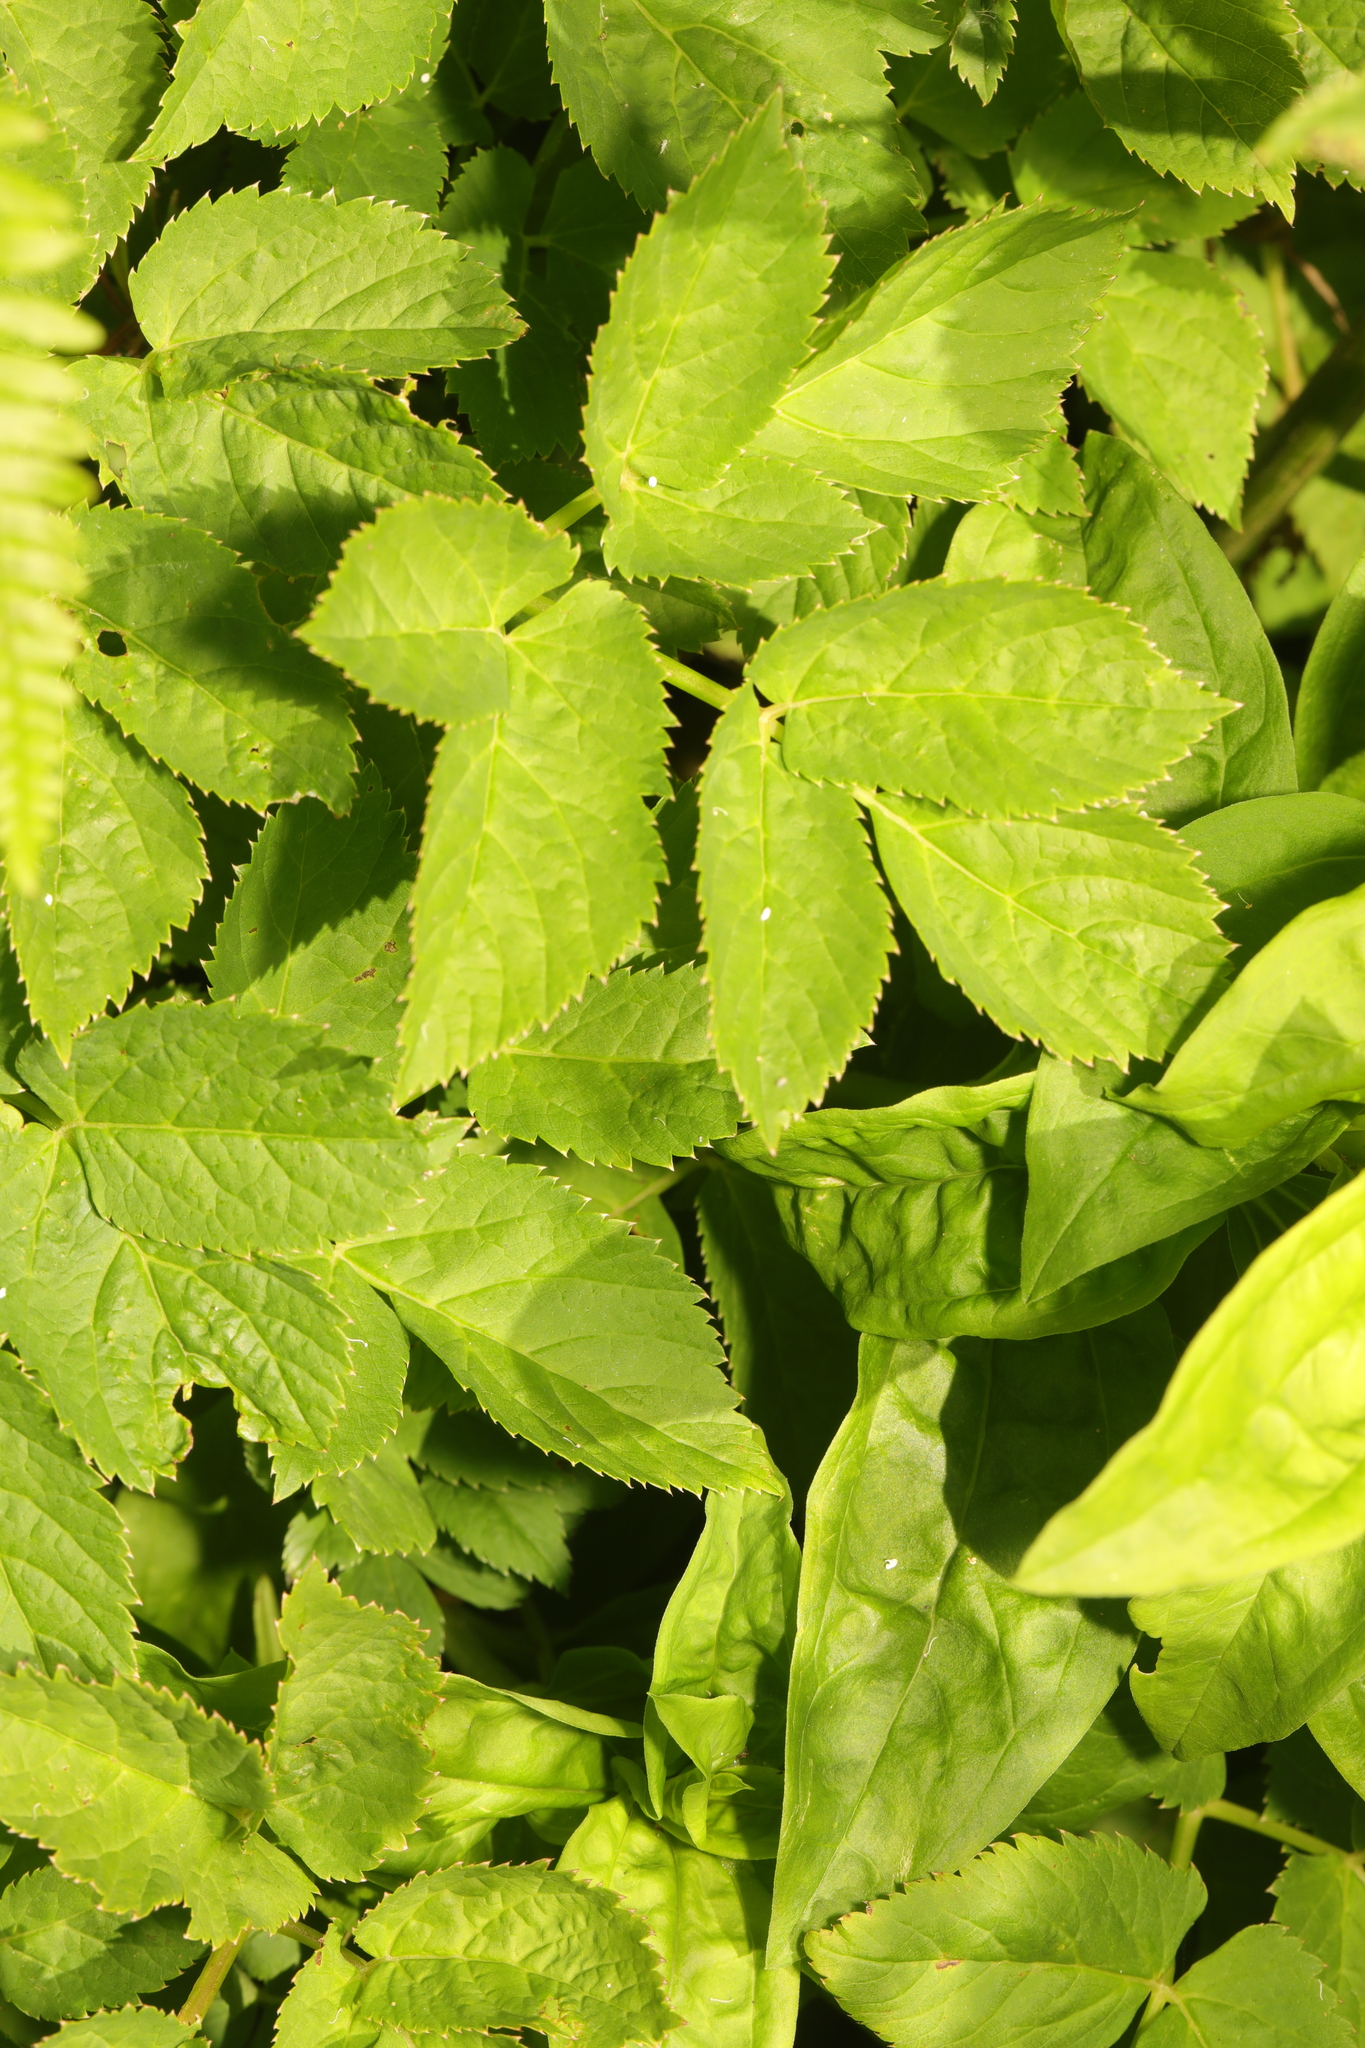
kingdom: Plantae
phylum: Tracheophyta
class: Magnoliopsida
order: Apiales
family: Apiaceae
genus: Aegopodium
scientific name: Aegopodium podagraria
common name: Ground-elder
